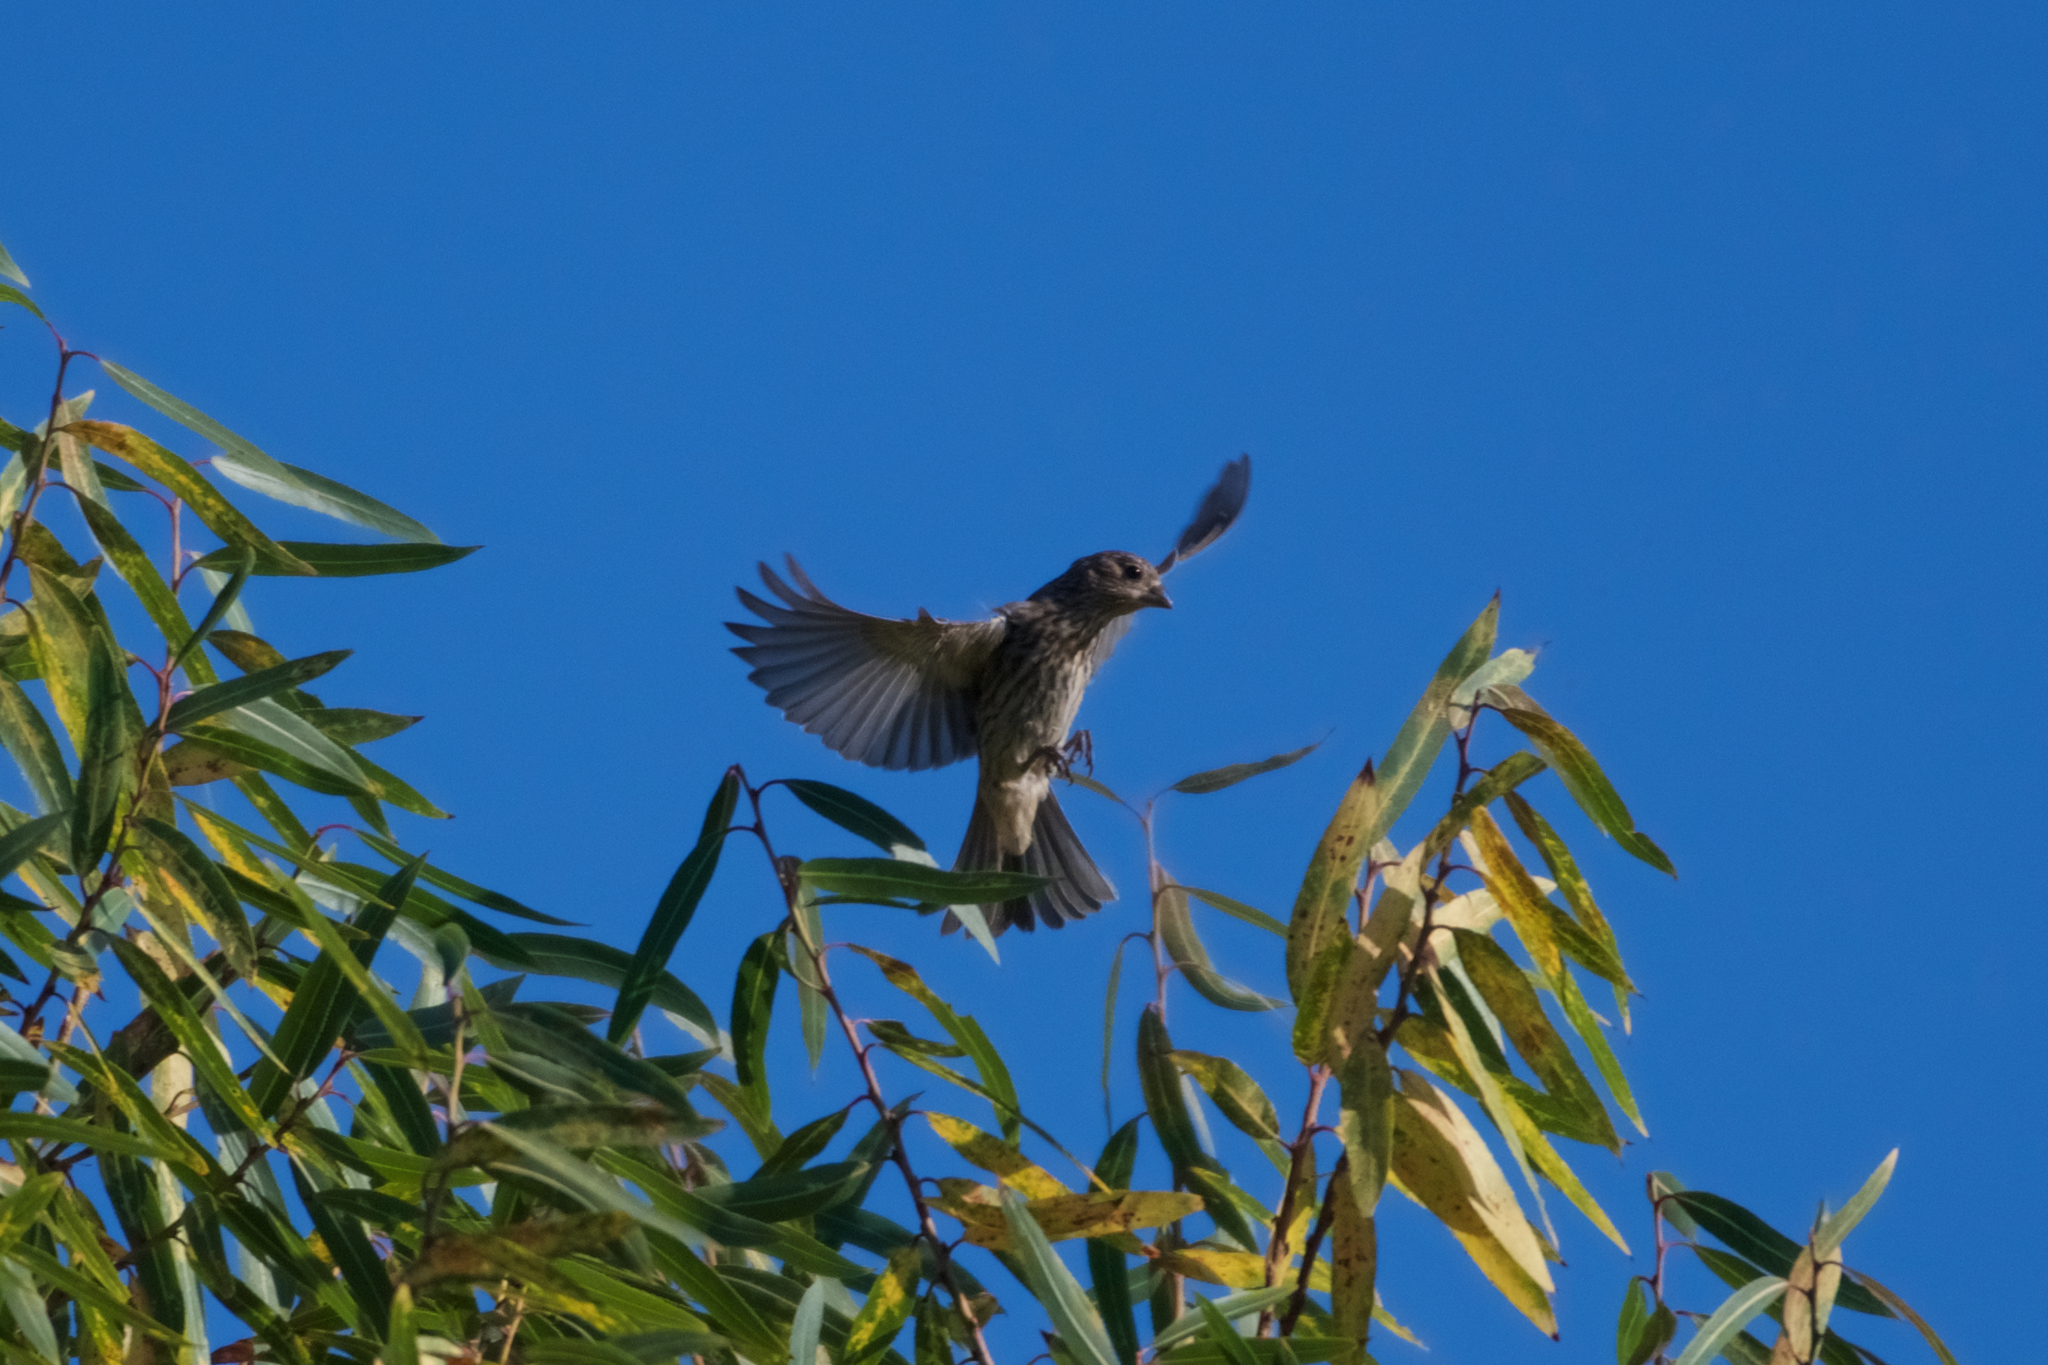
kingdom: Animalia
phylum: Chordata
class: Aves
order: Passeriformes
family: Fringillidae
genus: Haemorhous
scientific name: Haemorhous mexicanus
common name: House finch
